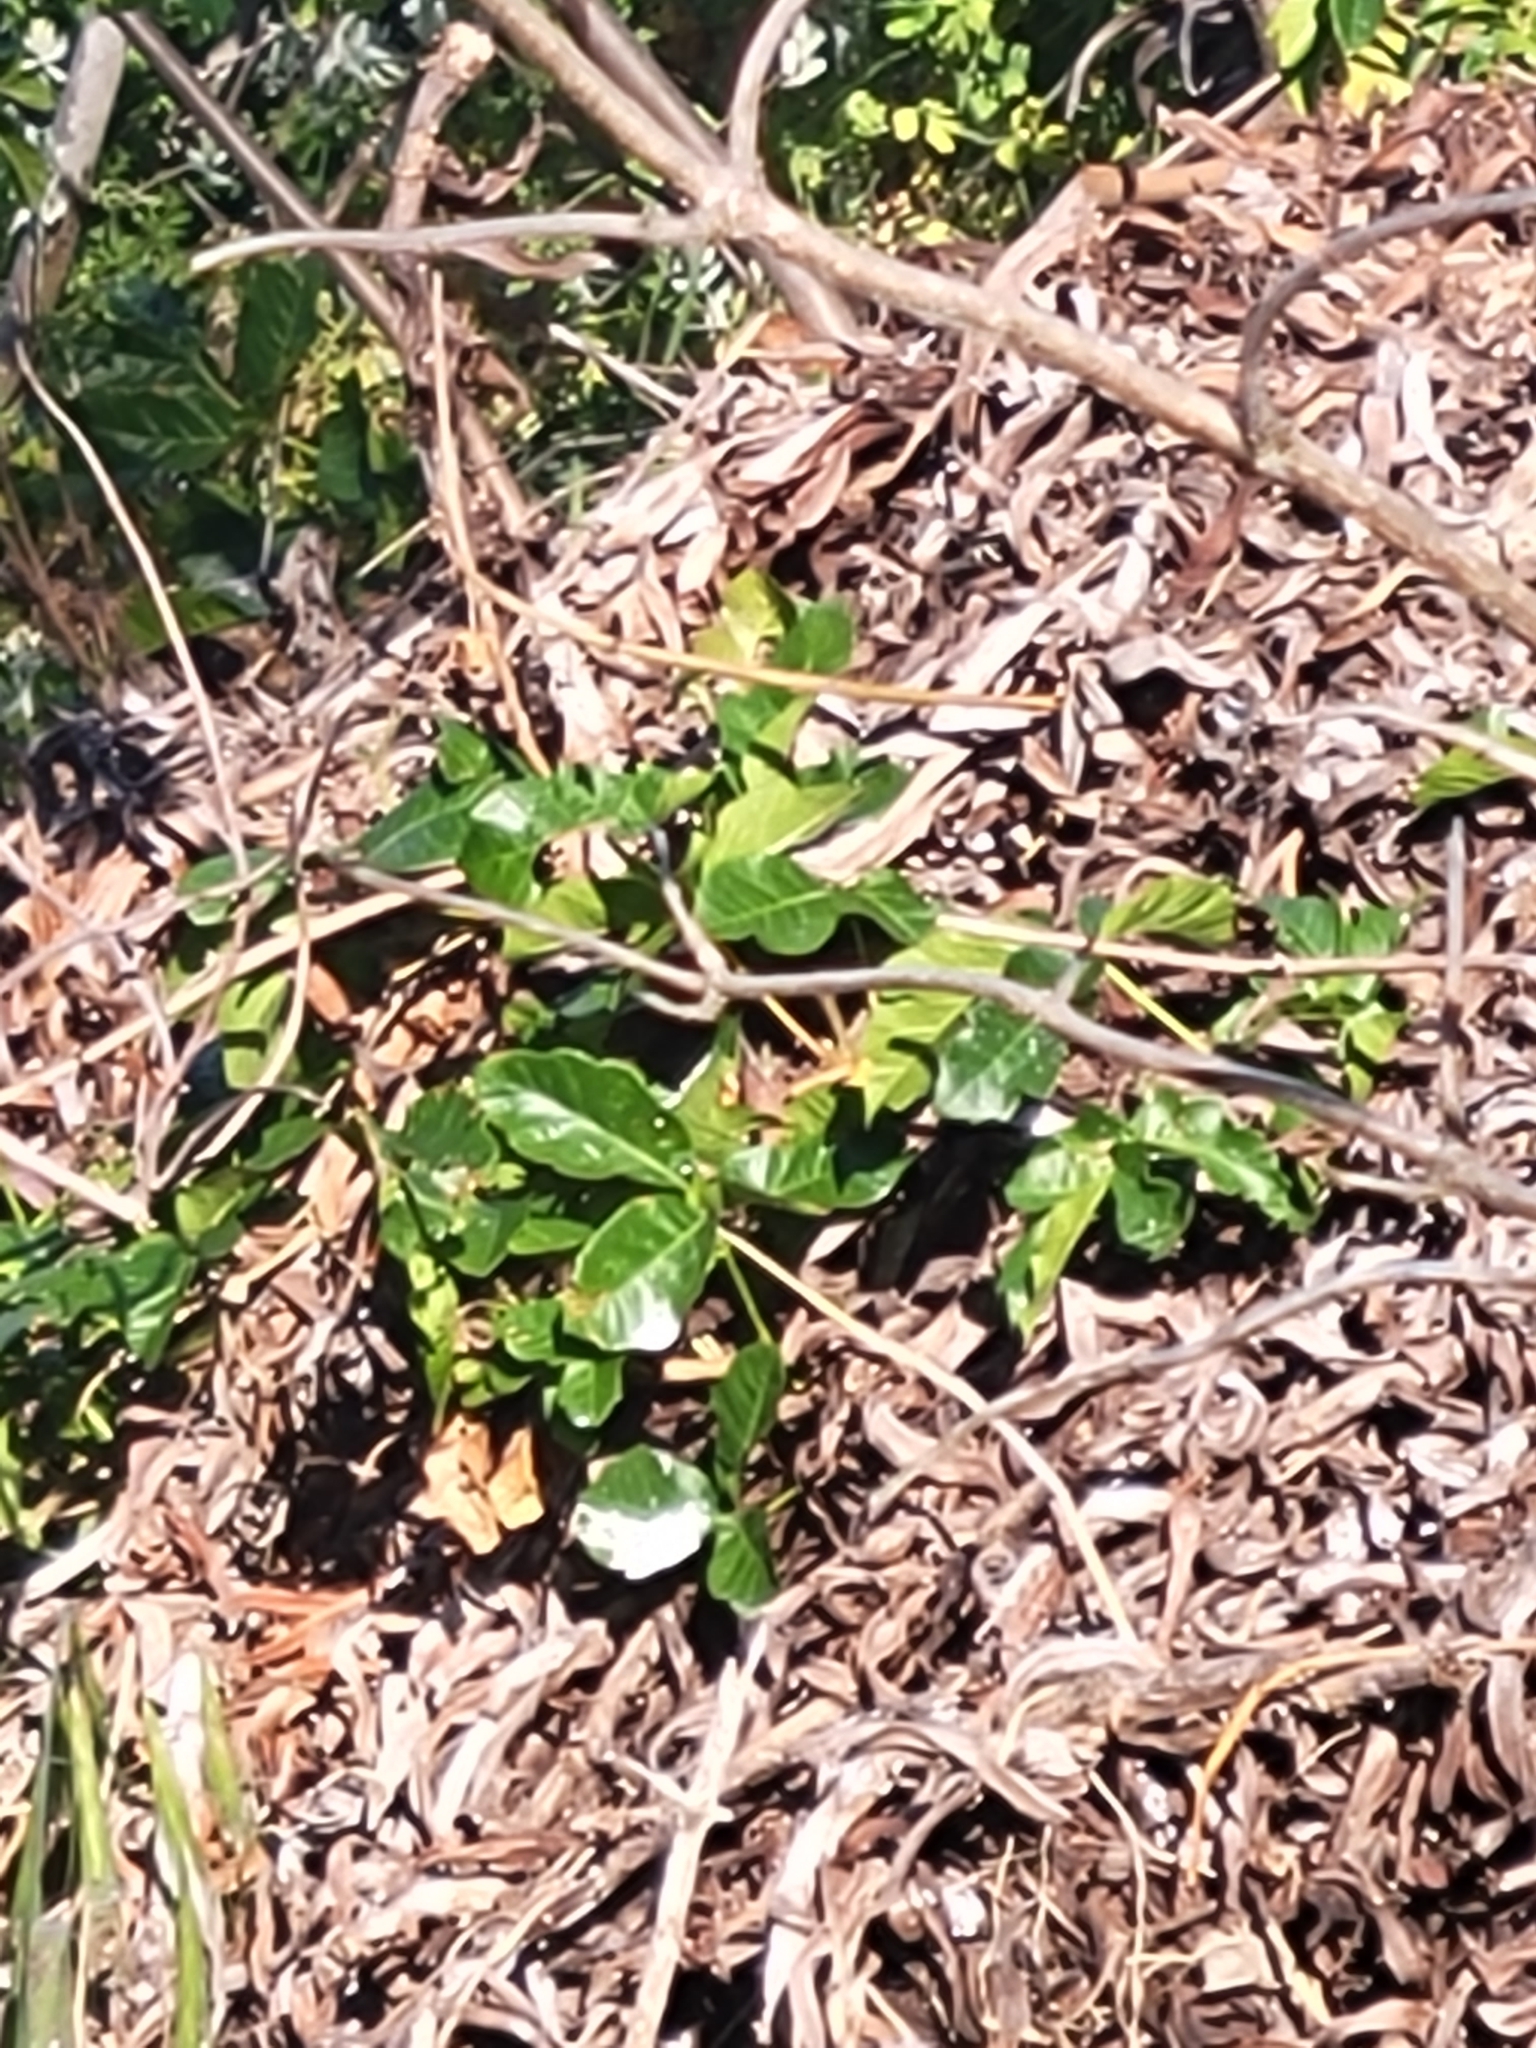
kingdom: Plantae
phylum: Tracheophyta
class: Magnoliopsida
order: Sapindales
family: Anacardiaceae
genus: Toxicodendron
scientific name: Toxicodendron diversilobum
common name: Pacific poison-oak
